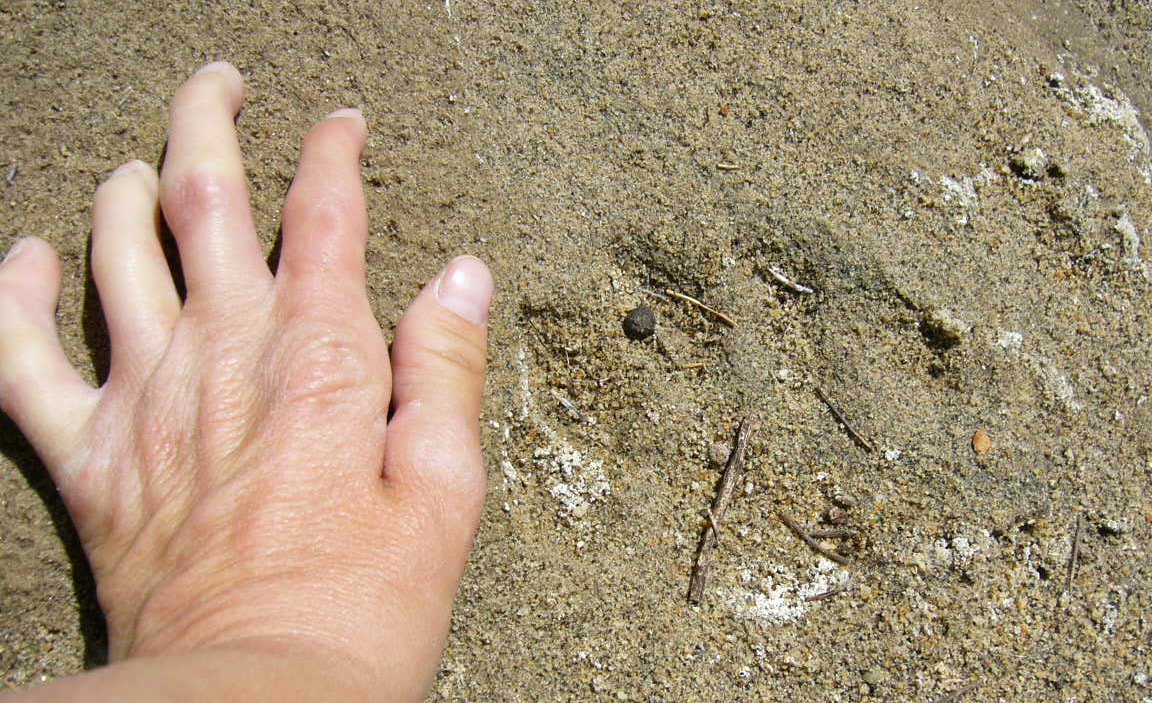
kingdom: Animalia
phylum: Chordata
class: Mammalia
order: Carnivora
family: Felidae
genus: Puma
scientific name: Puma concolor
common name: Puma
